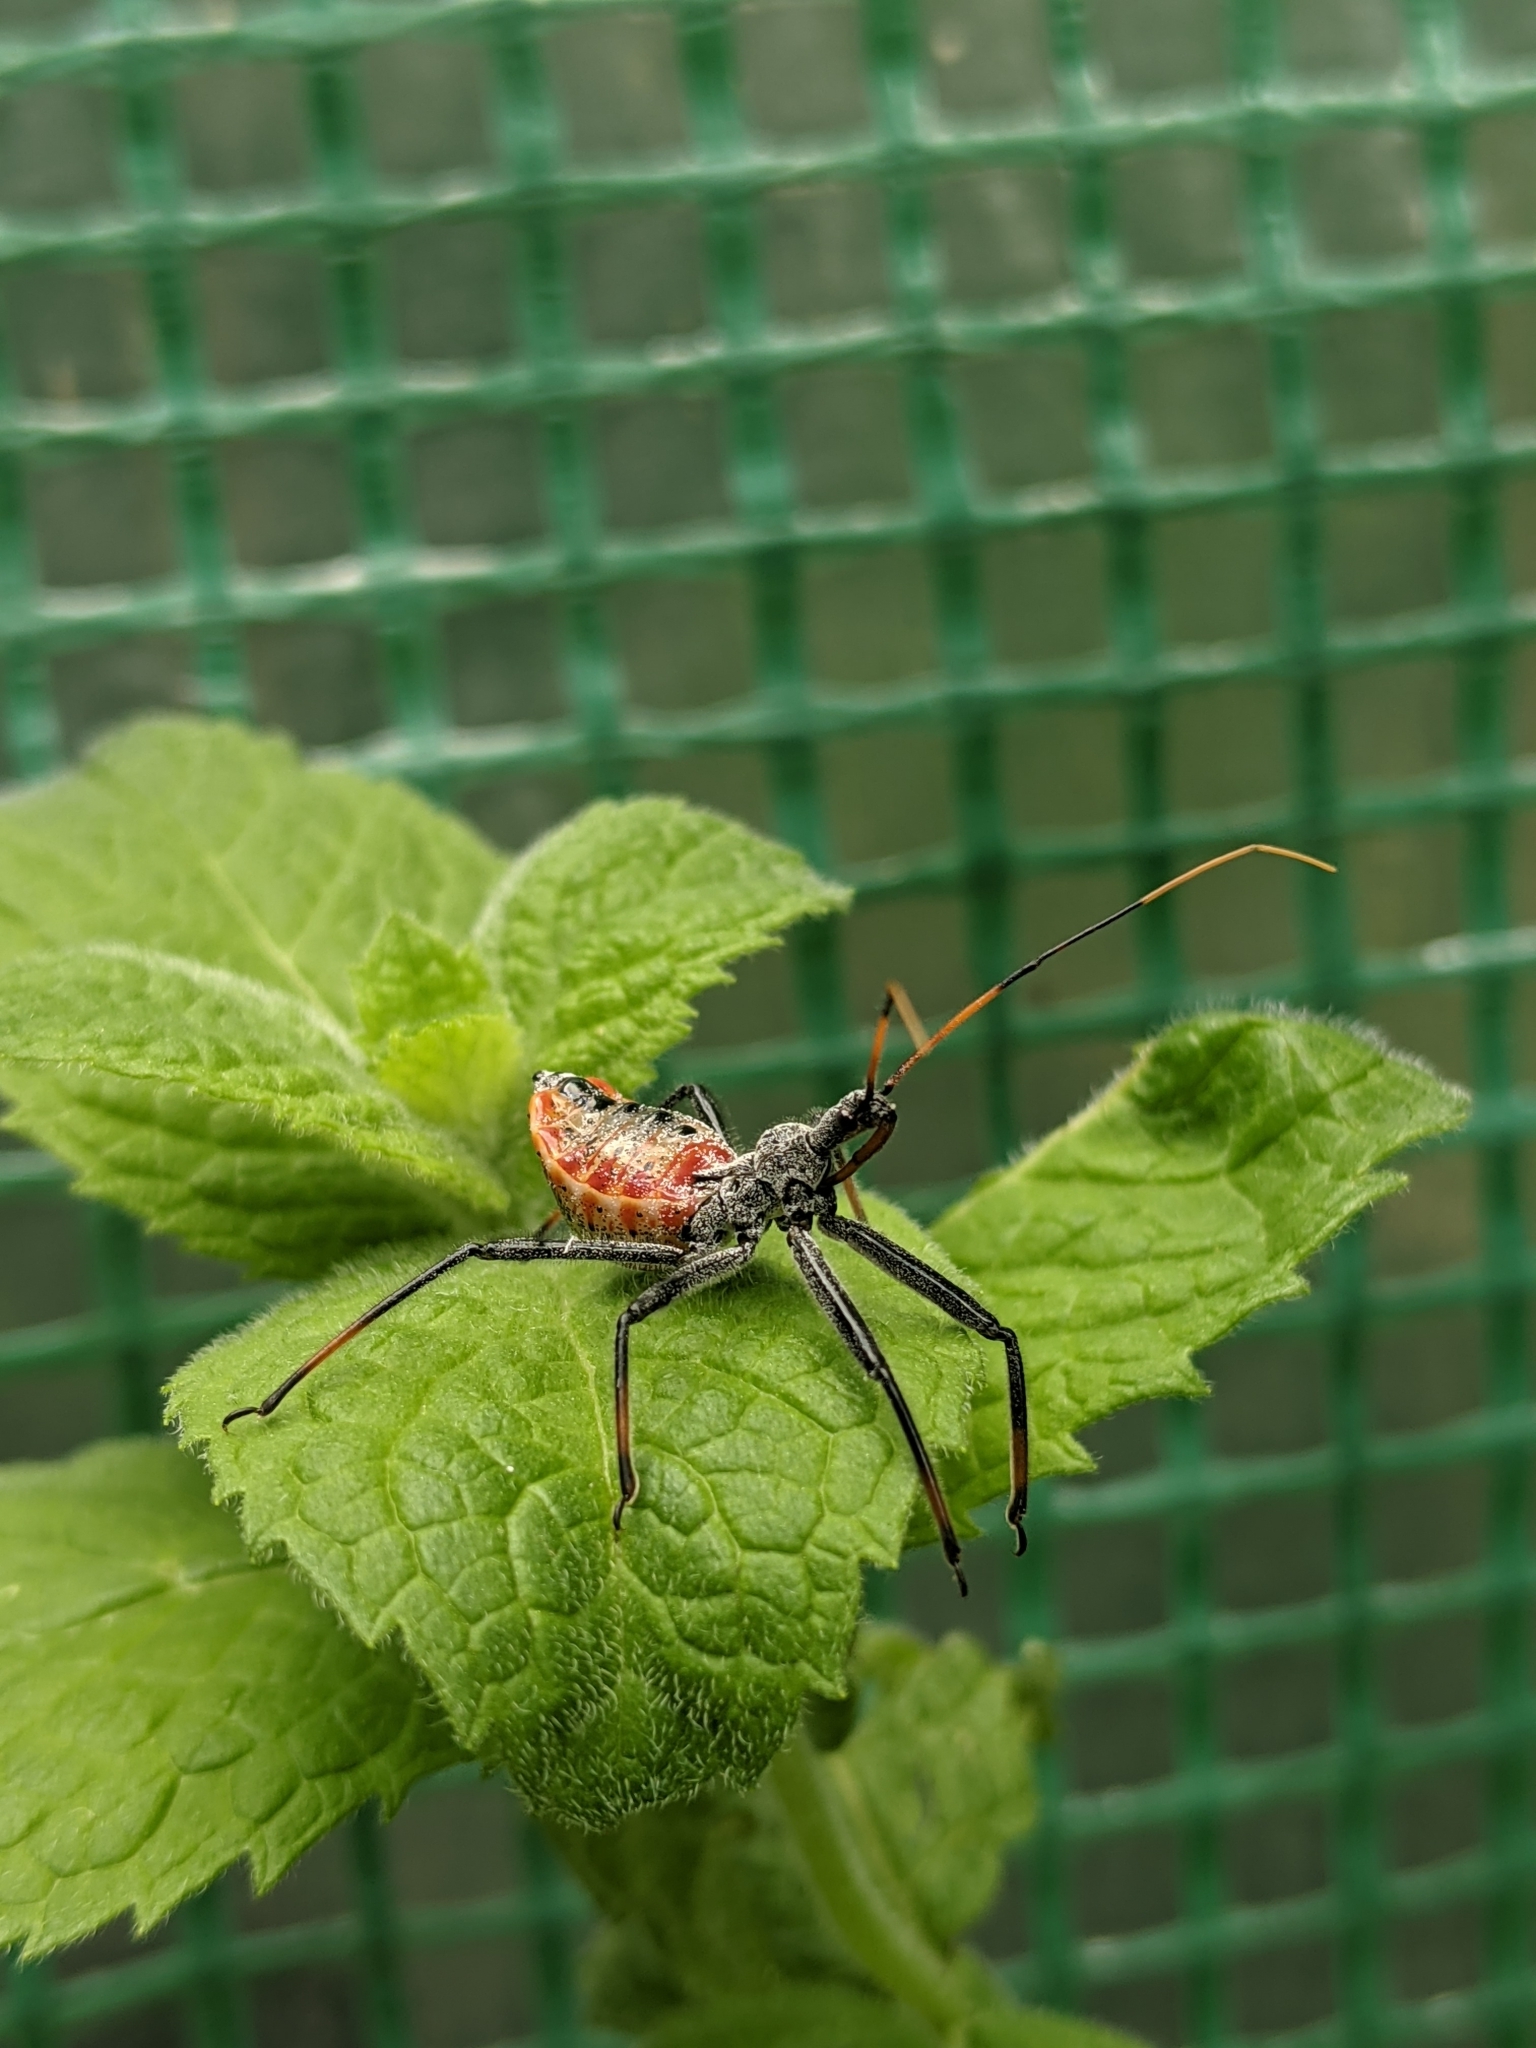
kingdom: Animalia
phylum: Arthropoda
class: Insecta
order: Hemiptera
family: Reduviidae
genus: Arilus
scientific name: Arilus cristatus
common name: North american wheel bug
